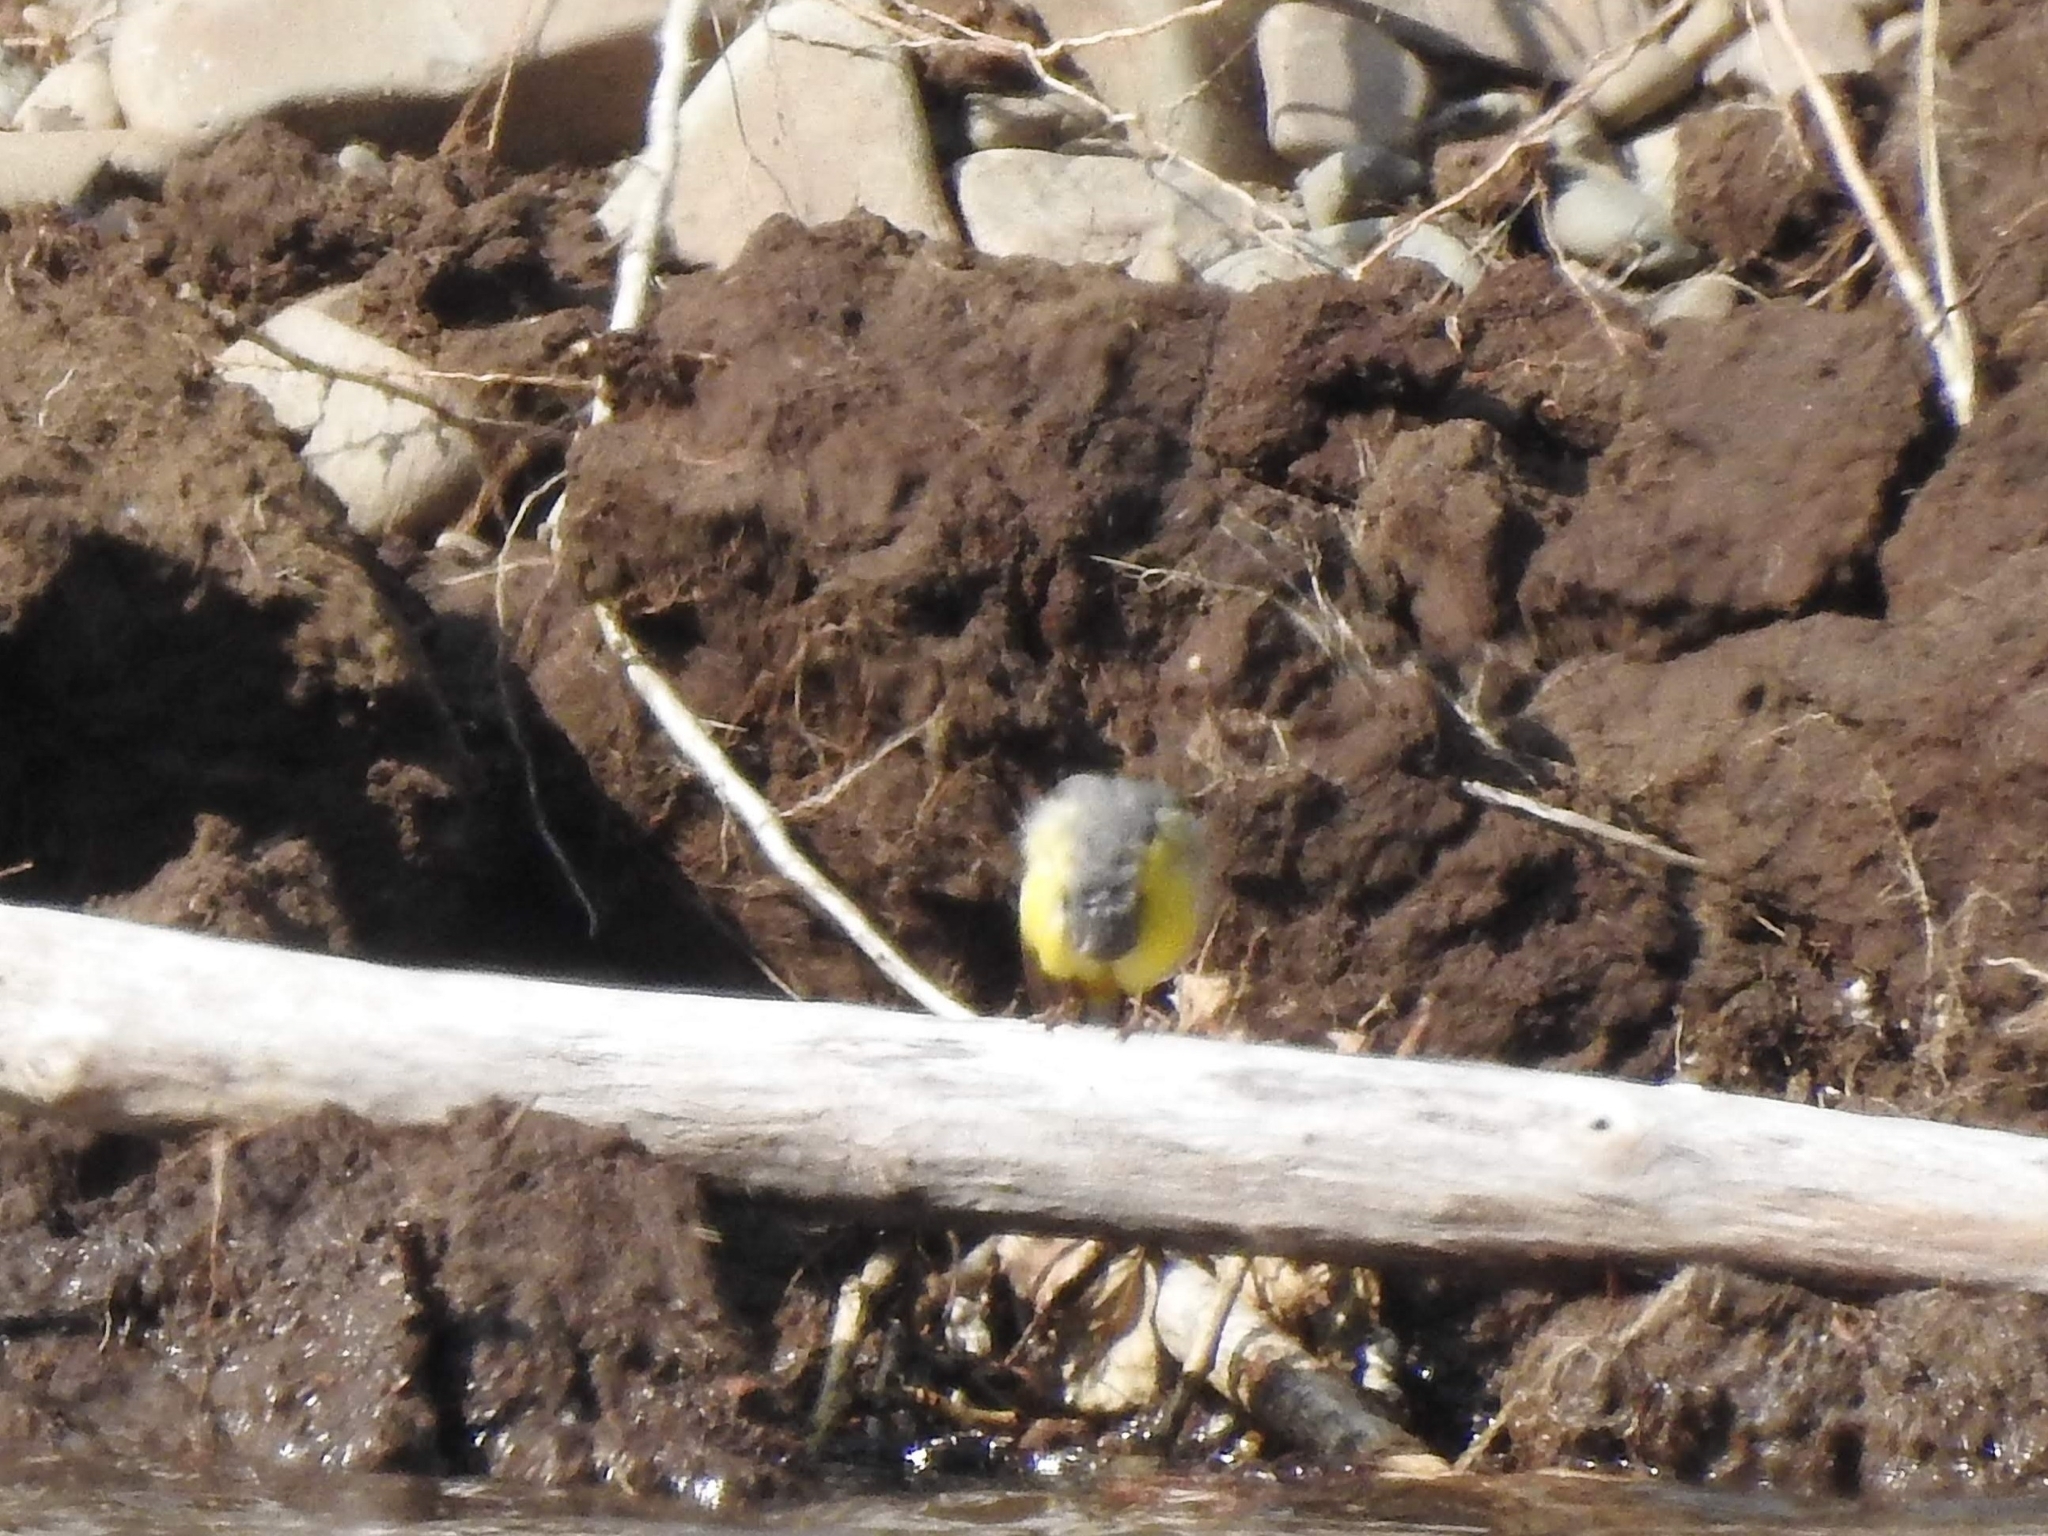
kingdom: Animalia
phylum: Chordata
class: Aves
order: Passeriformes
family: Motacillidae
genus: Motacilla
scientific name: Motacilla cinerea
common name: Grey wagtail
